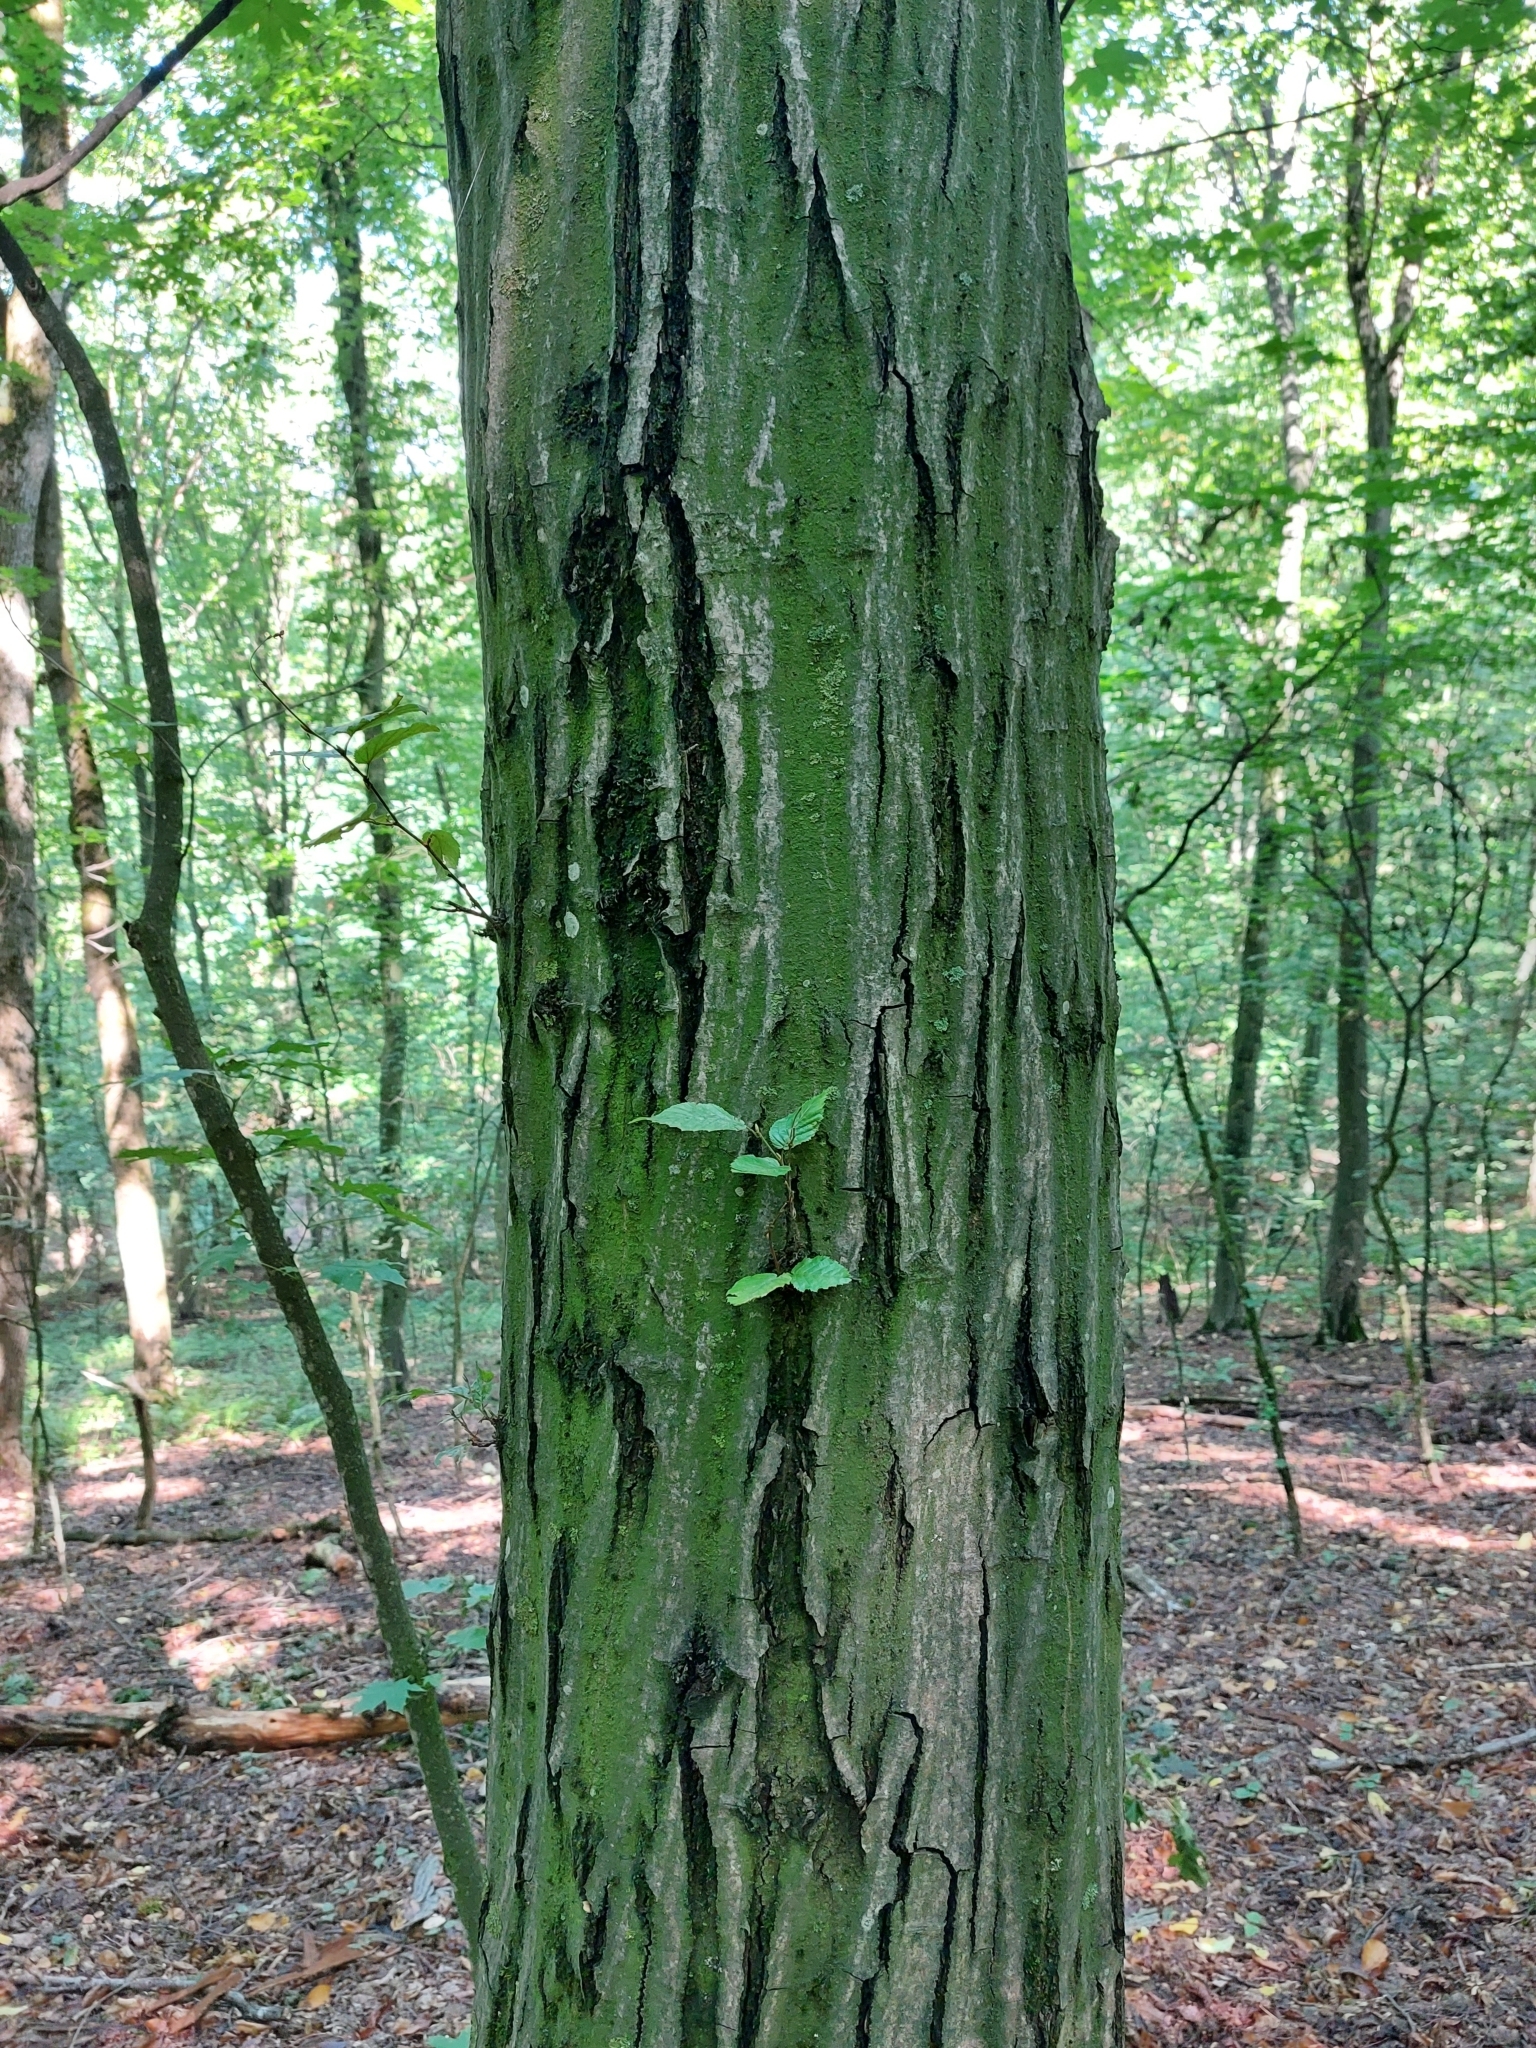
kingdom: Plantae
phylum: Tracheophyta
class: Magnoliopsida
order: Fagales
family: Betulaceae
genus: Carpinus
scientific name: Carpinus betulus
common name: Hornbeam
